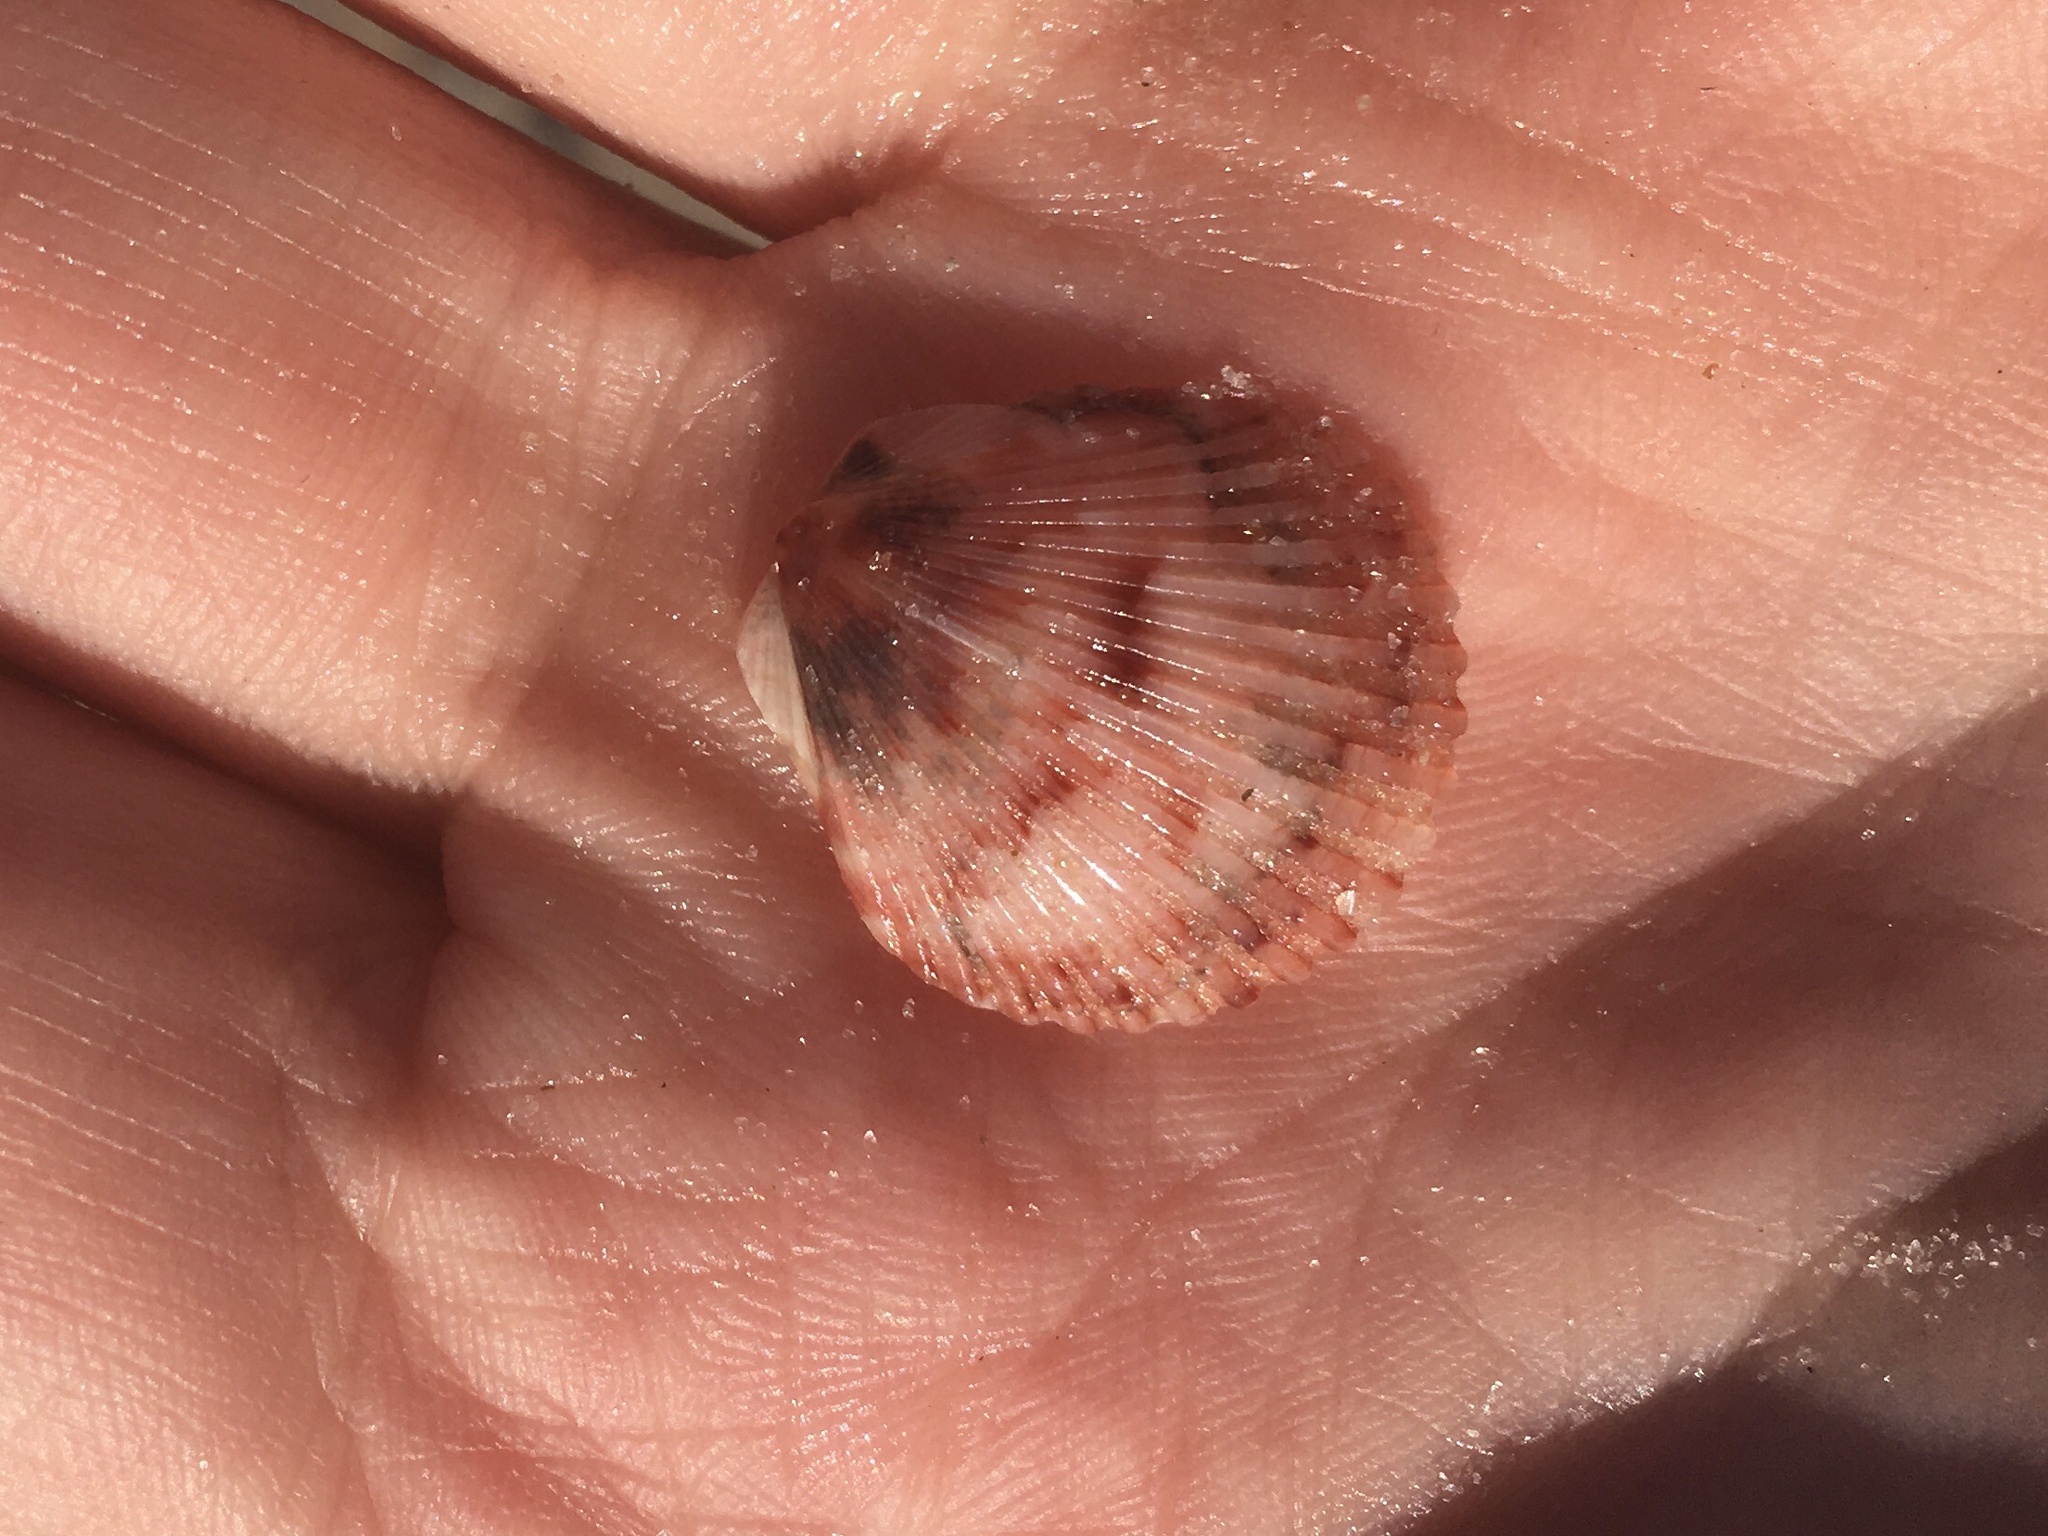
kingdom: Animalia
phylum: Mollusca
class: Bivalvia
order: Pectinida
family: Pectinidae
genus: Argopecten
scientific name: Argopecten gibbus
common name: Atlantic calico scallop
